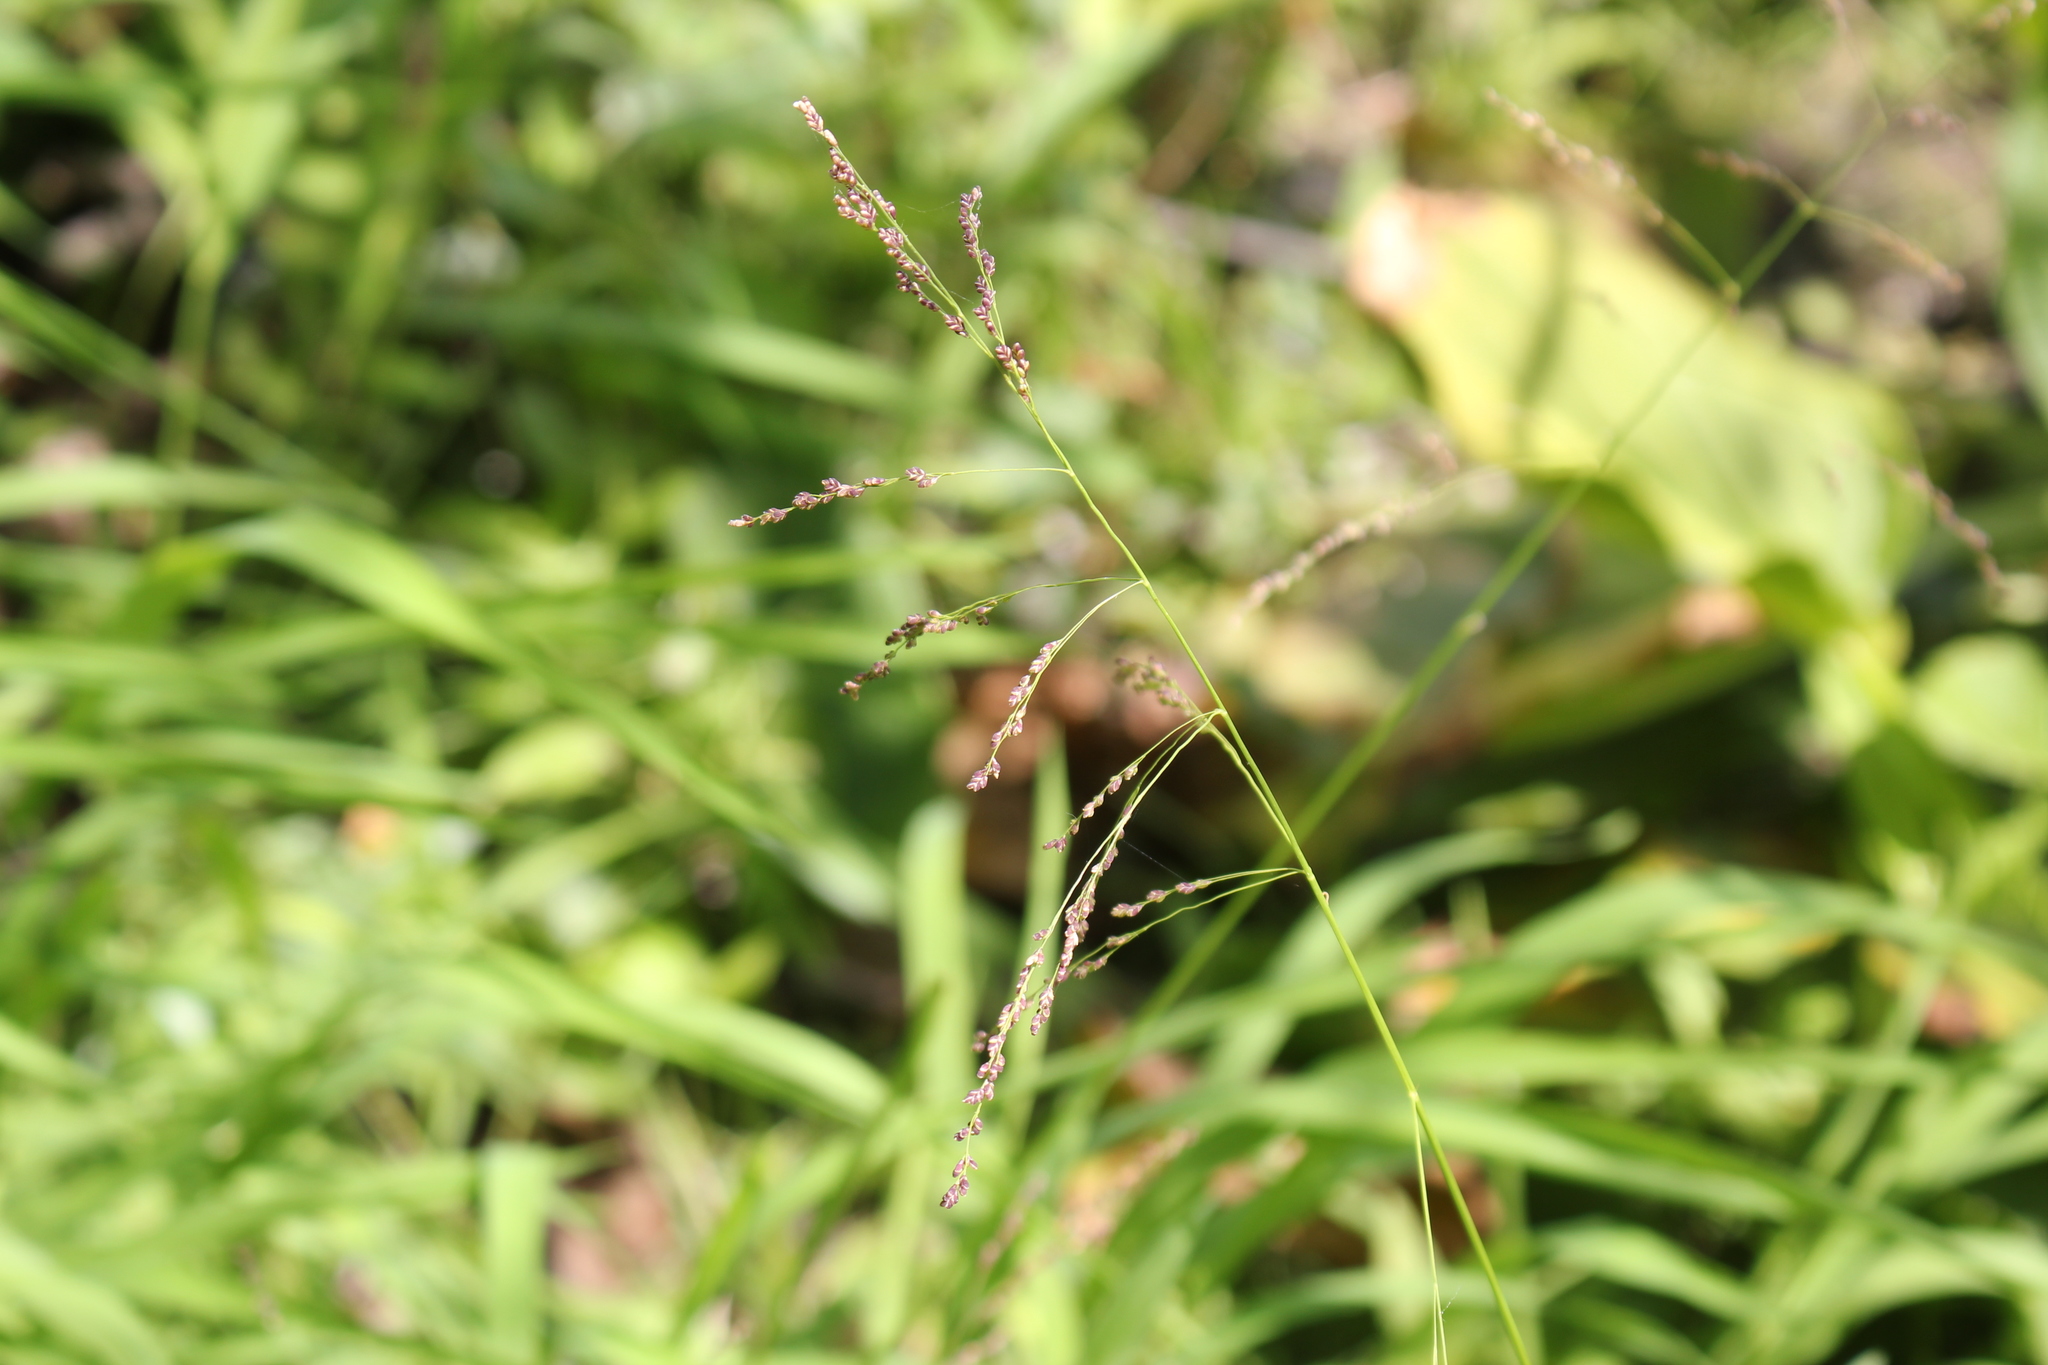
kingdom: Plantae
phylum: Tracheophyta
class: Liliopsida
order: Poales
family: Poaceae
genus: Glyceria
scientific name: Glyceria striata
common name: Fowl manna grass
